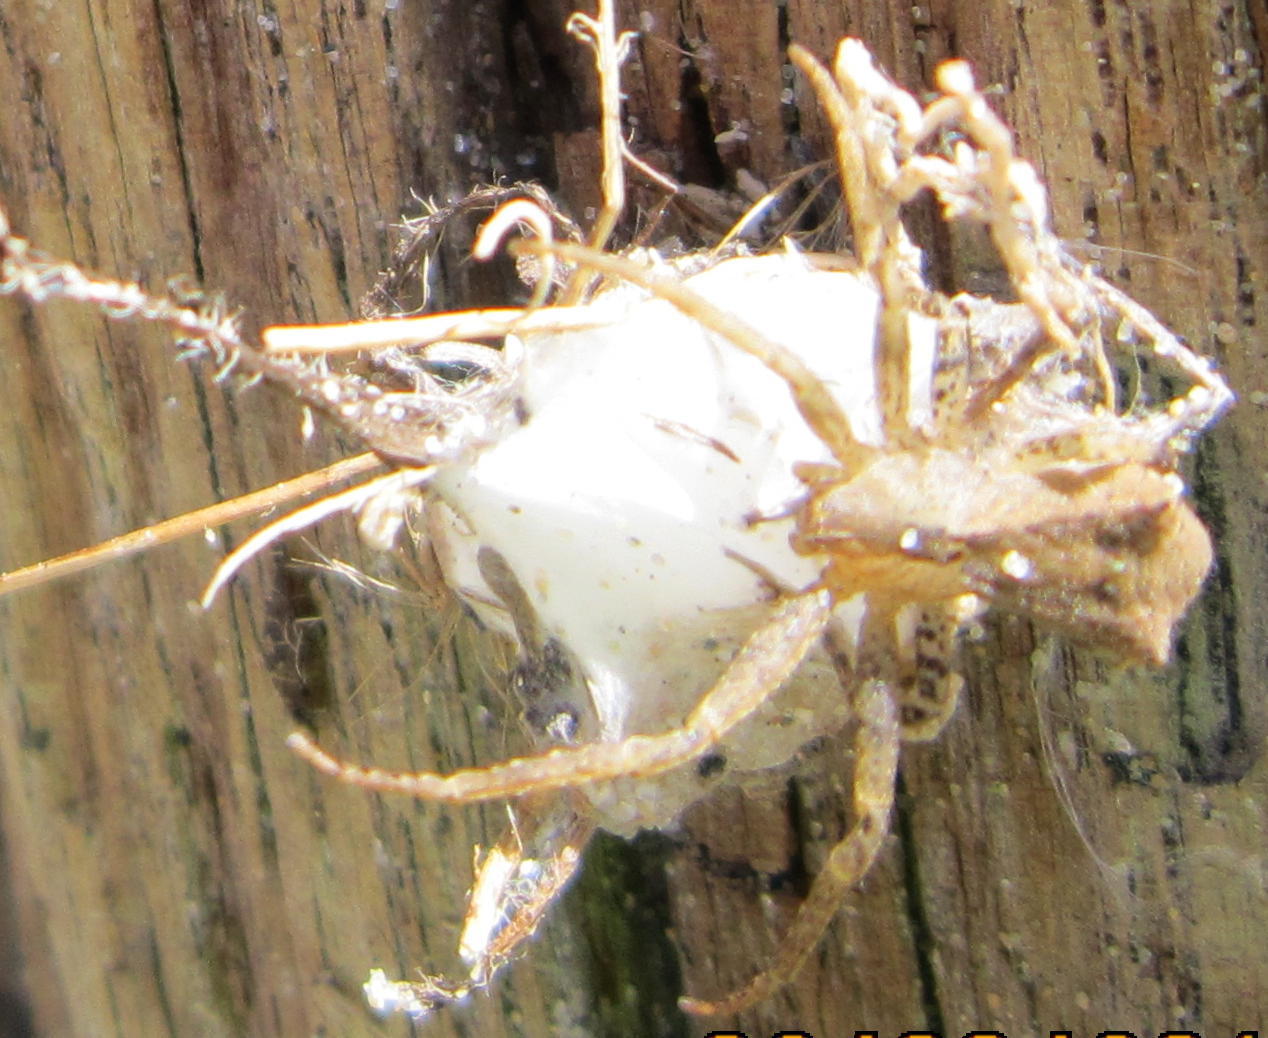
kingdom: Animalia
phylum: Arthropoda
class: Arachnida
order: Araneae
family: Thomisidae
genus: Sidymella
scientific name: Sidymella
